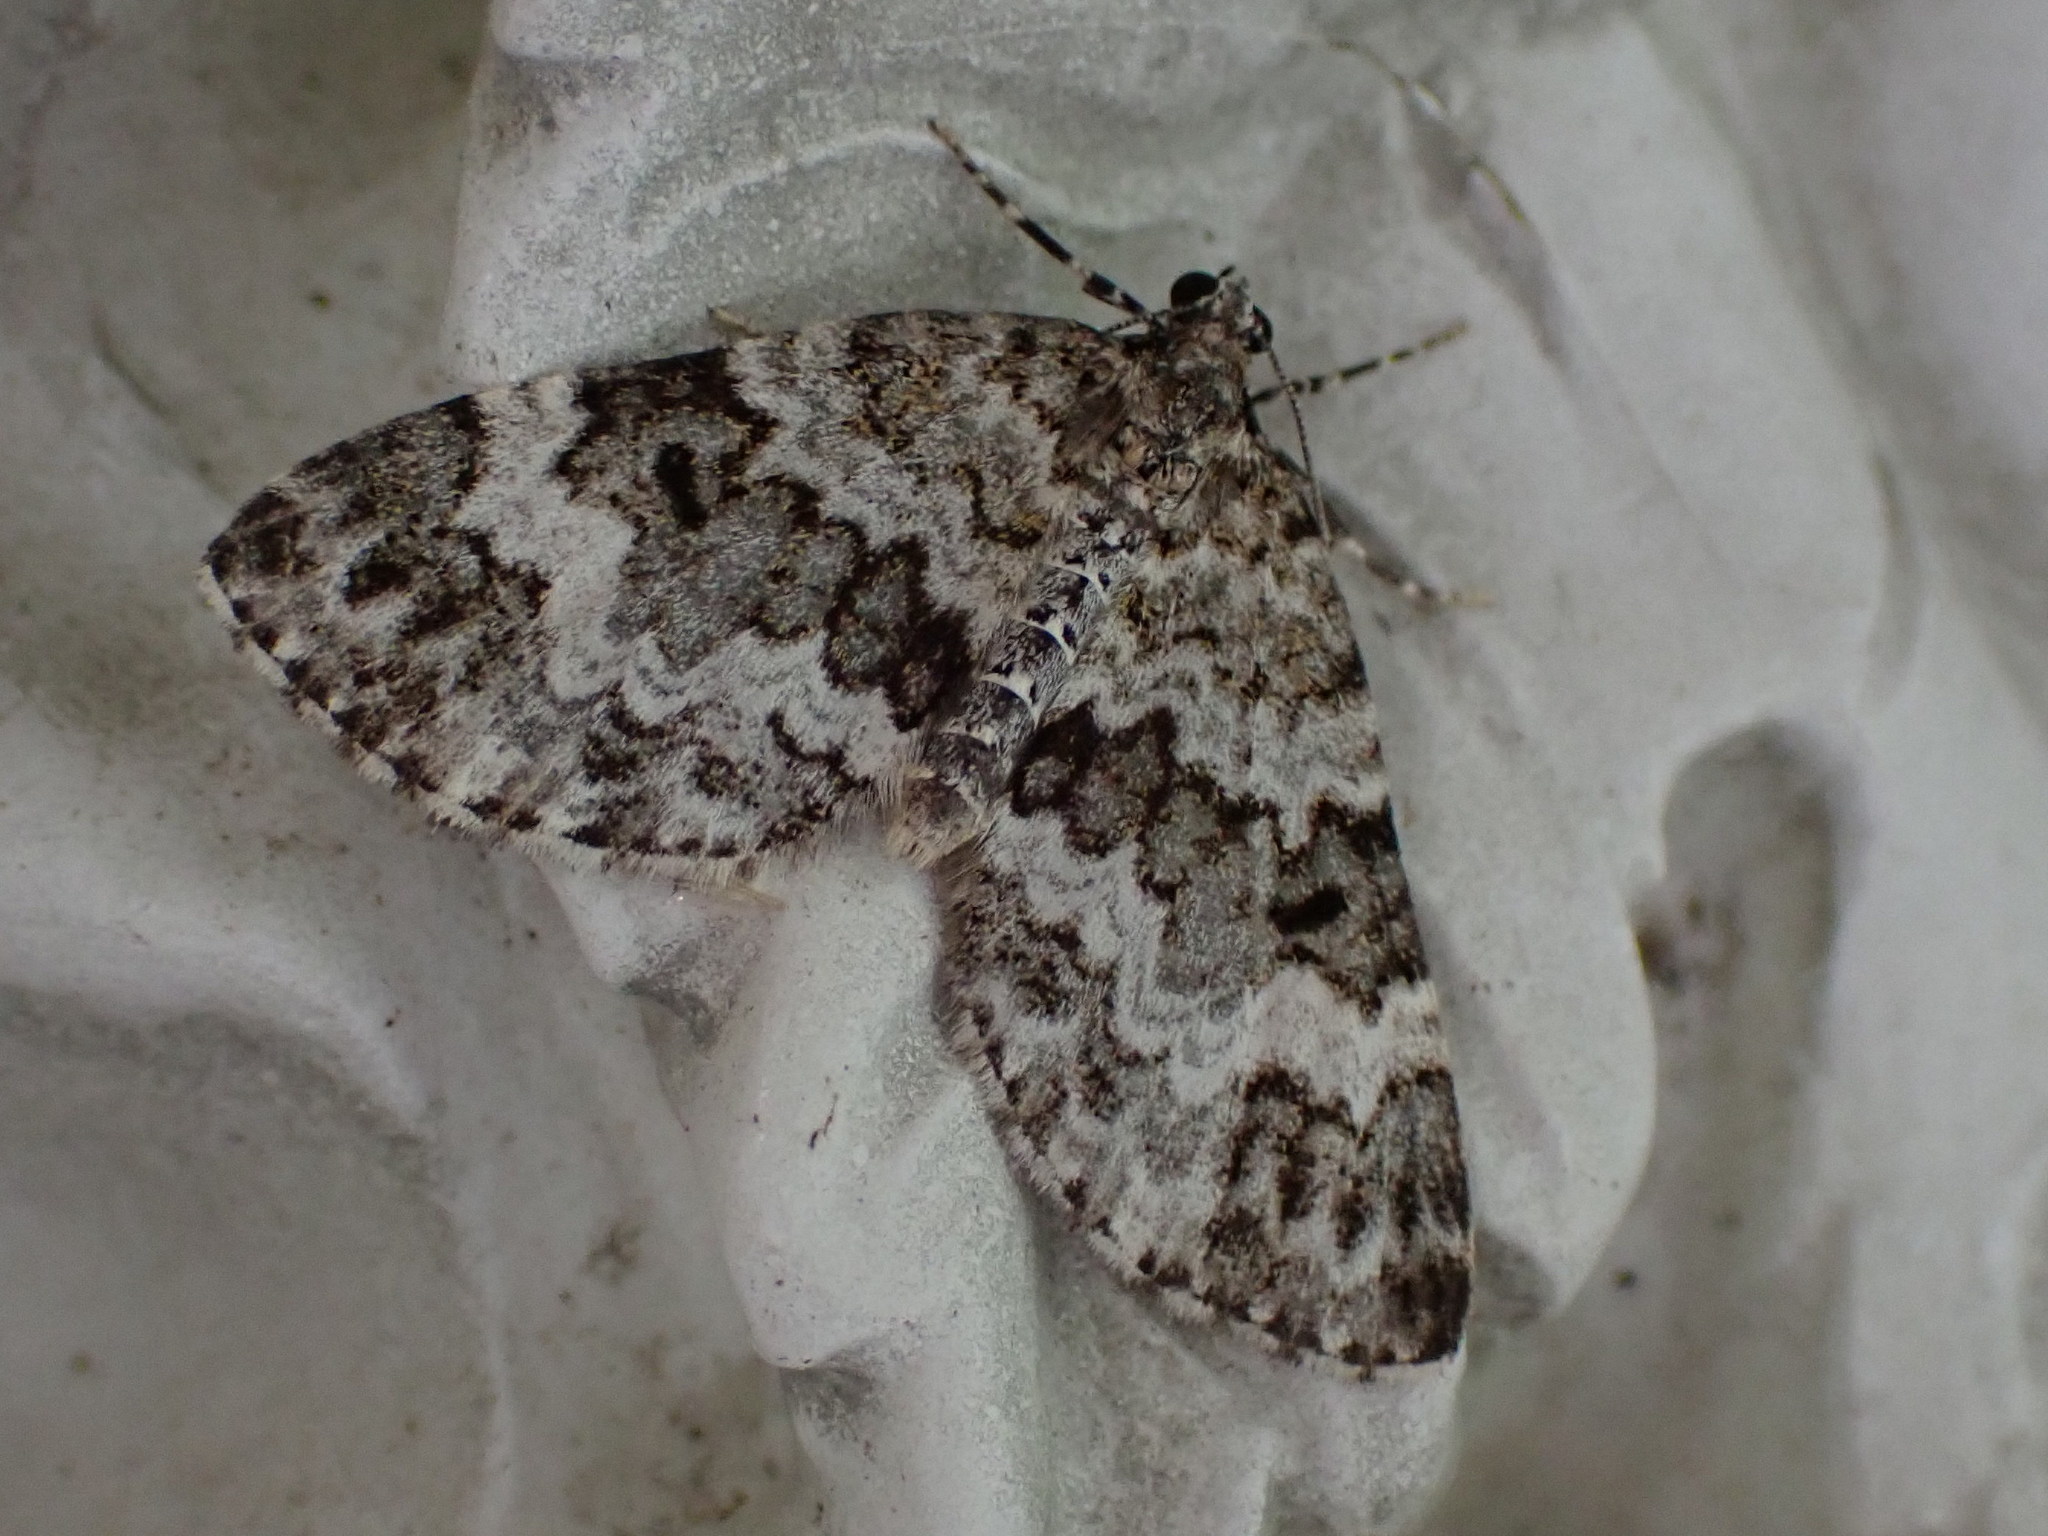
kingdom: Animalia
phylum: Arthropoda
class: Insecta
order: Lepidoptera
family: Geometridae
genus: Spargania
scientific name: Spargania magnoliata
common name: Double-banded carpet
